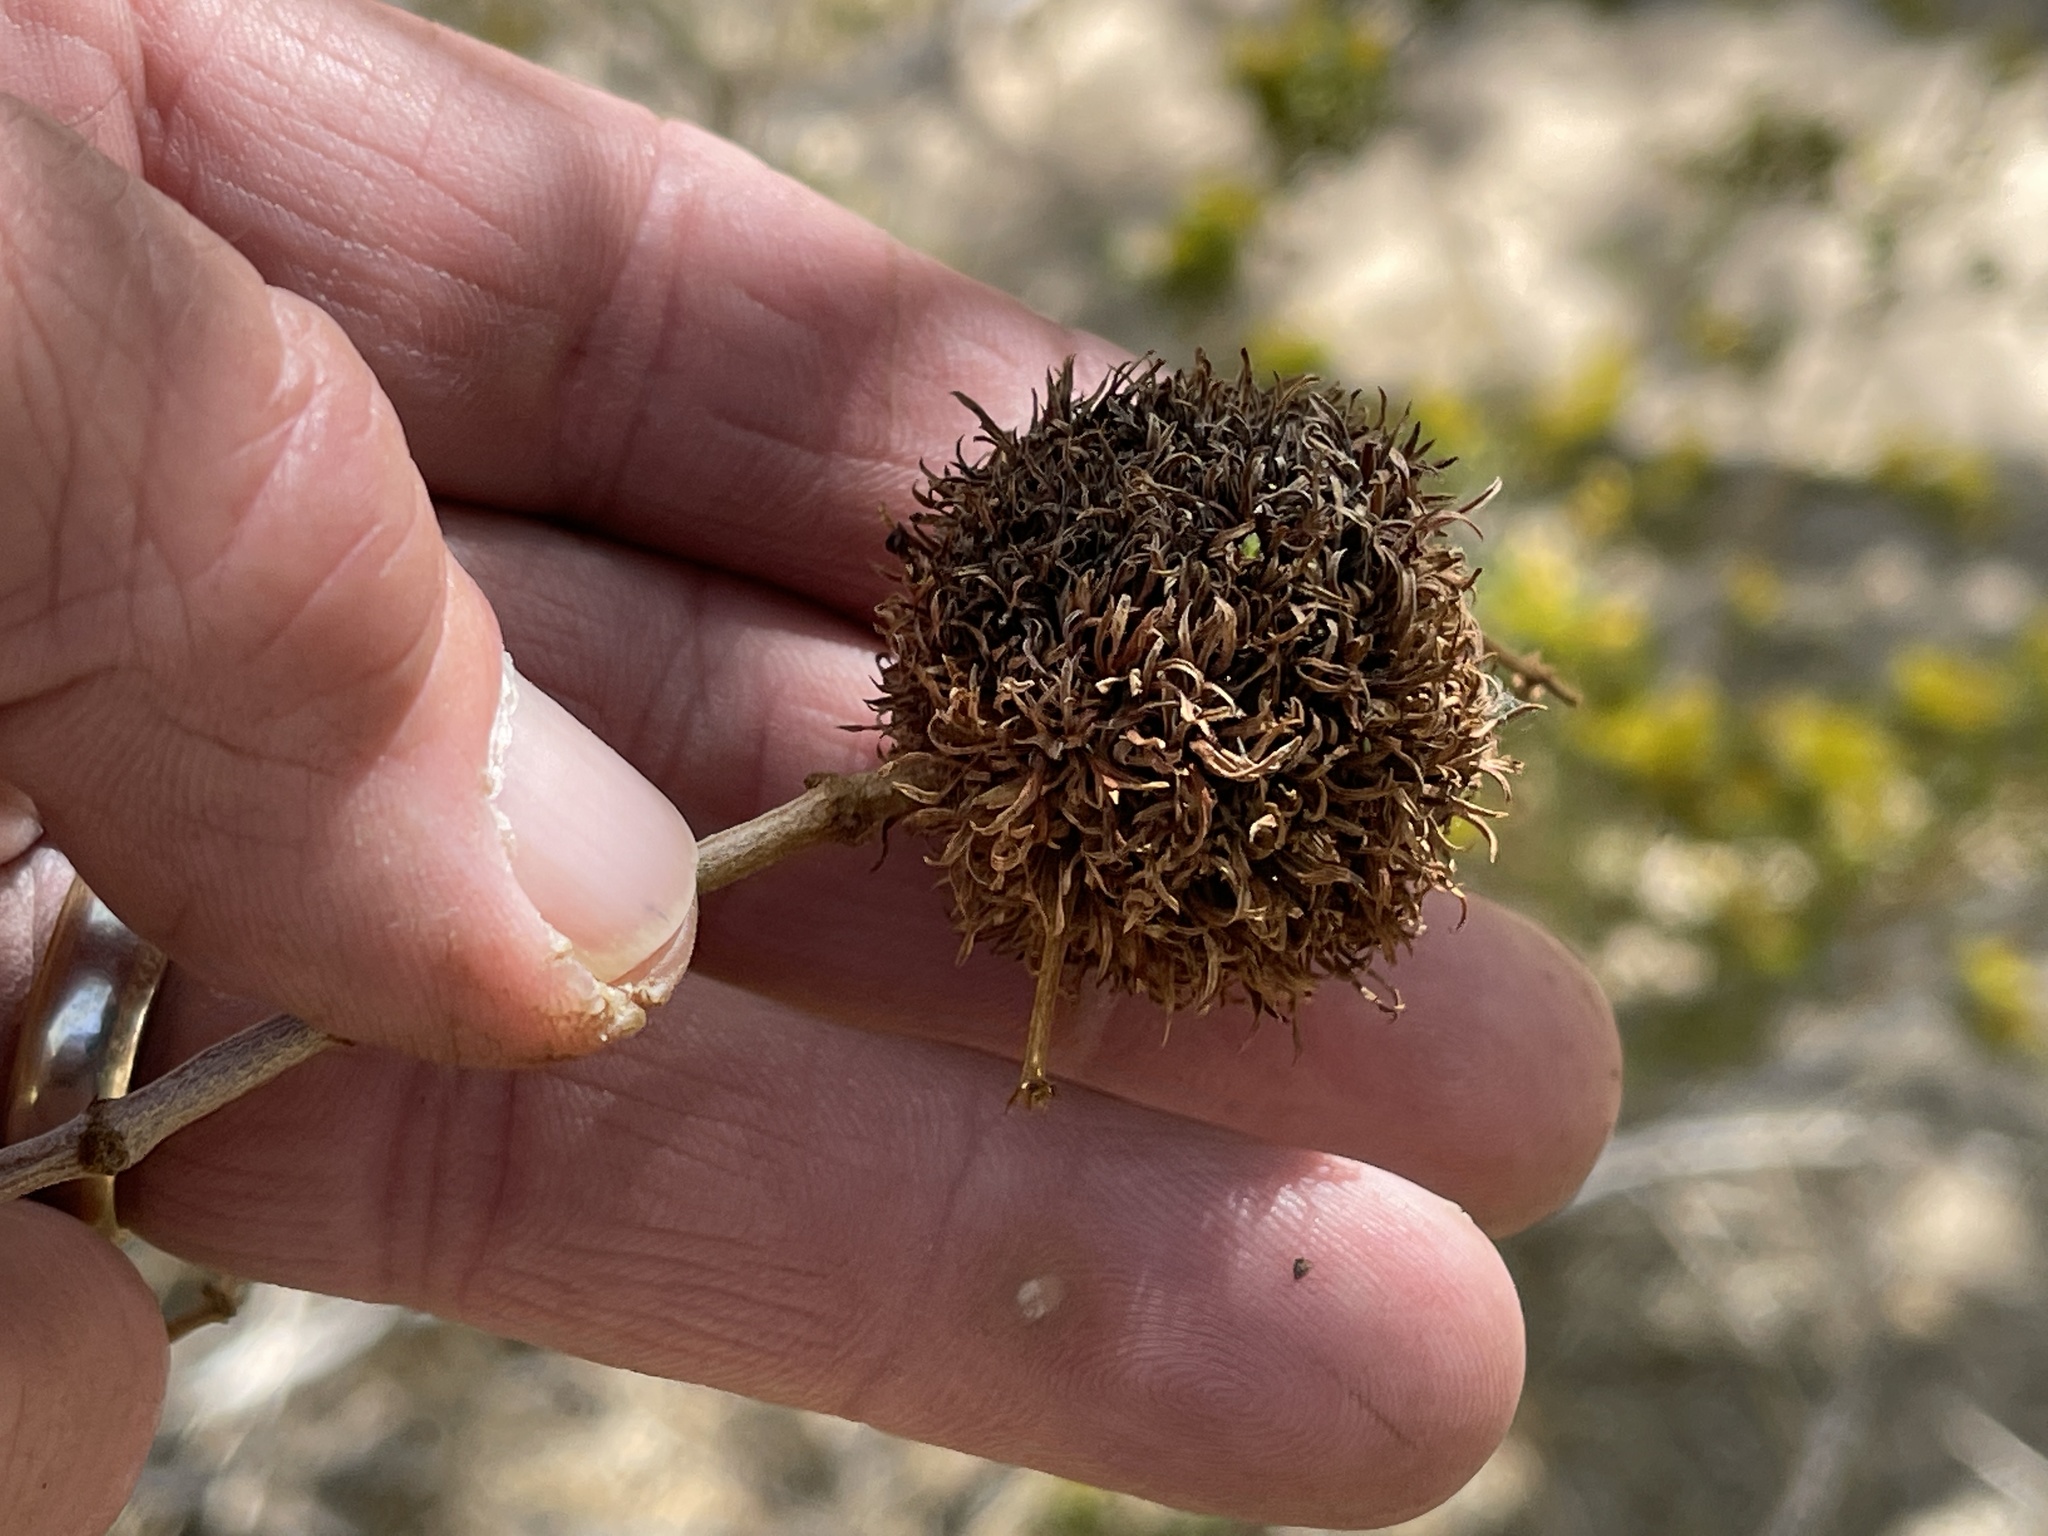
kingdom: Animalia
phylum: Arthropoda
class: Insecta
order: Diptera
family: Cecidomyiidae
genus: Asphondylia
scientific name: Asphondylia auripila
